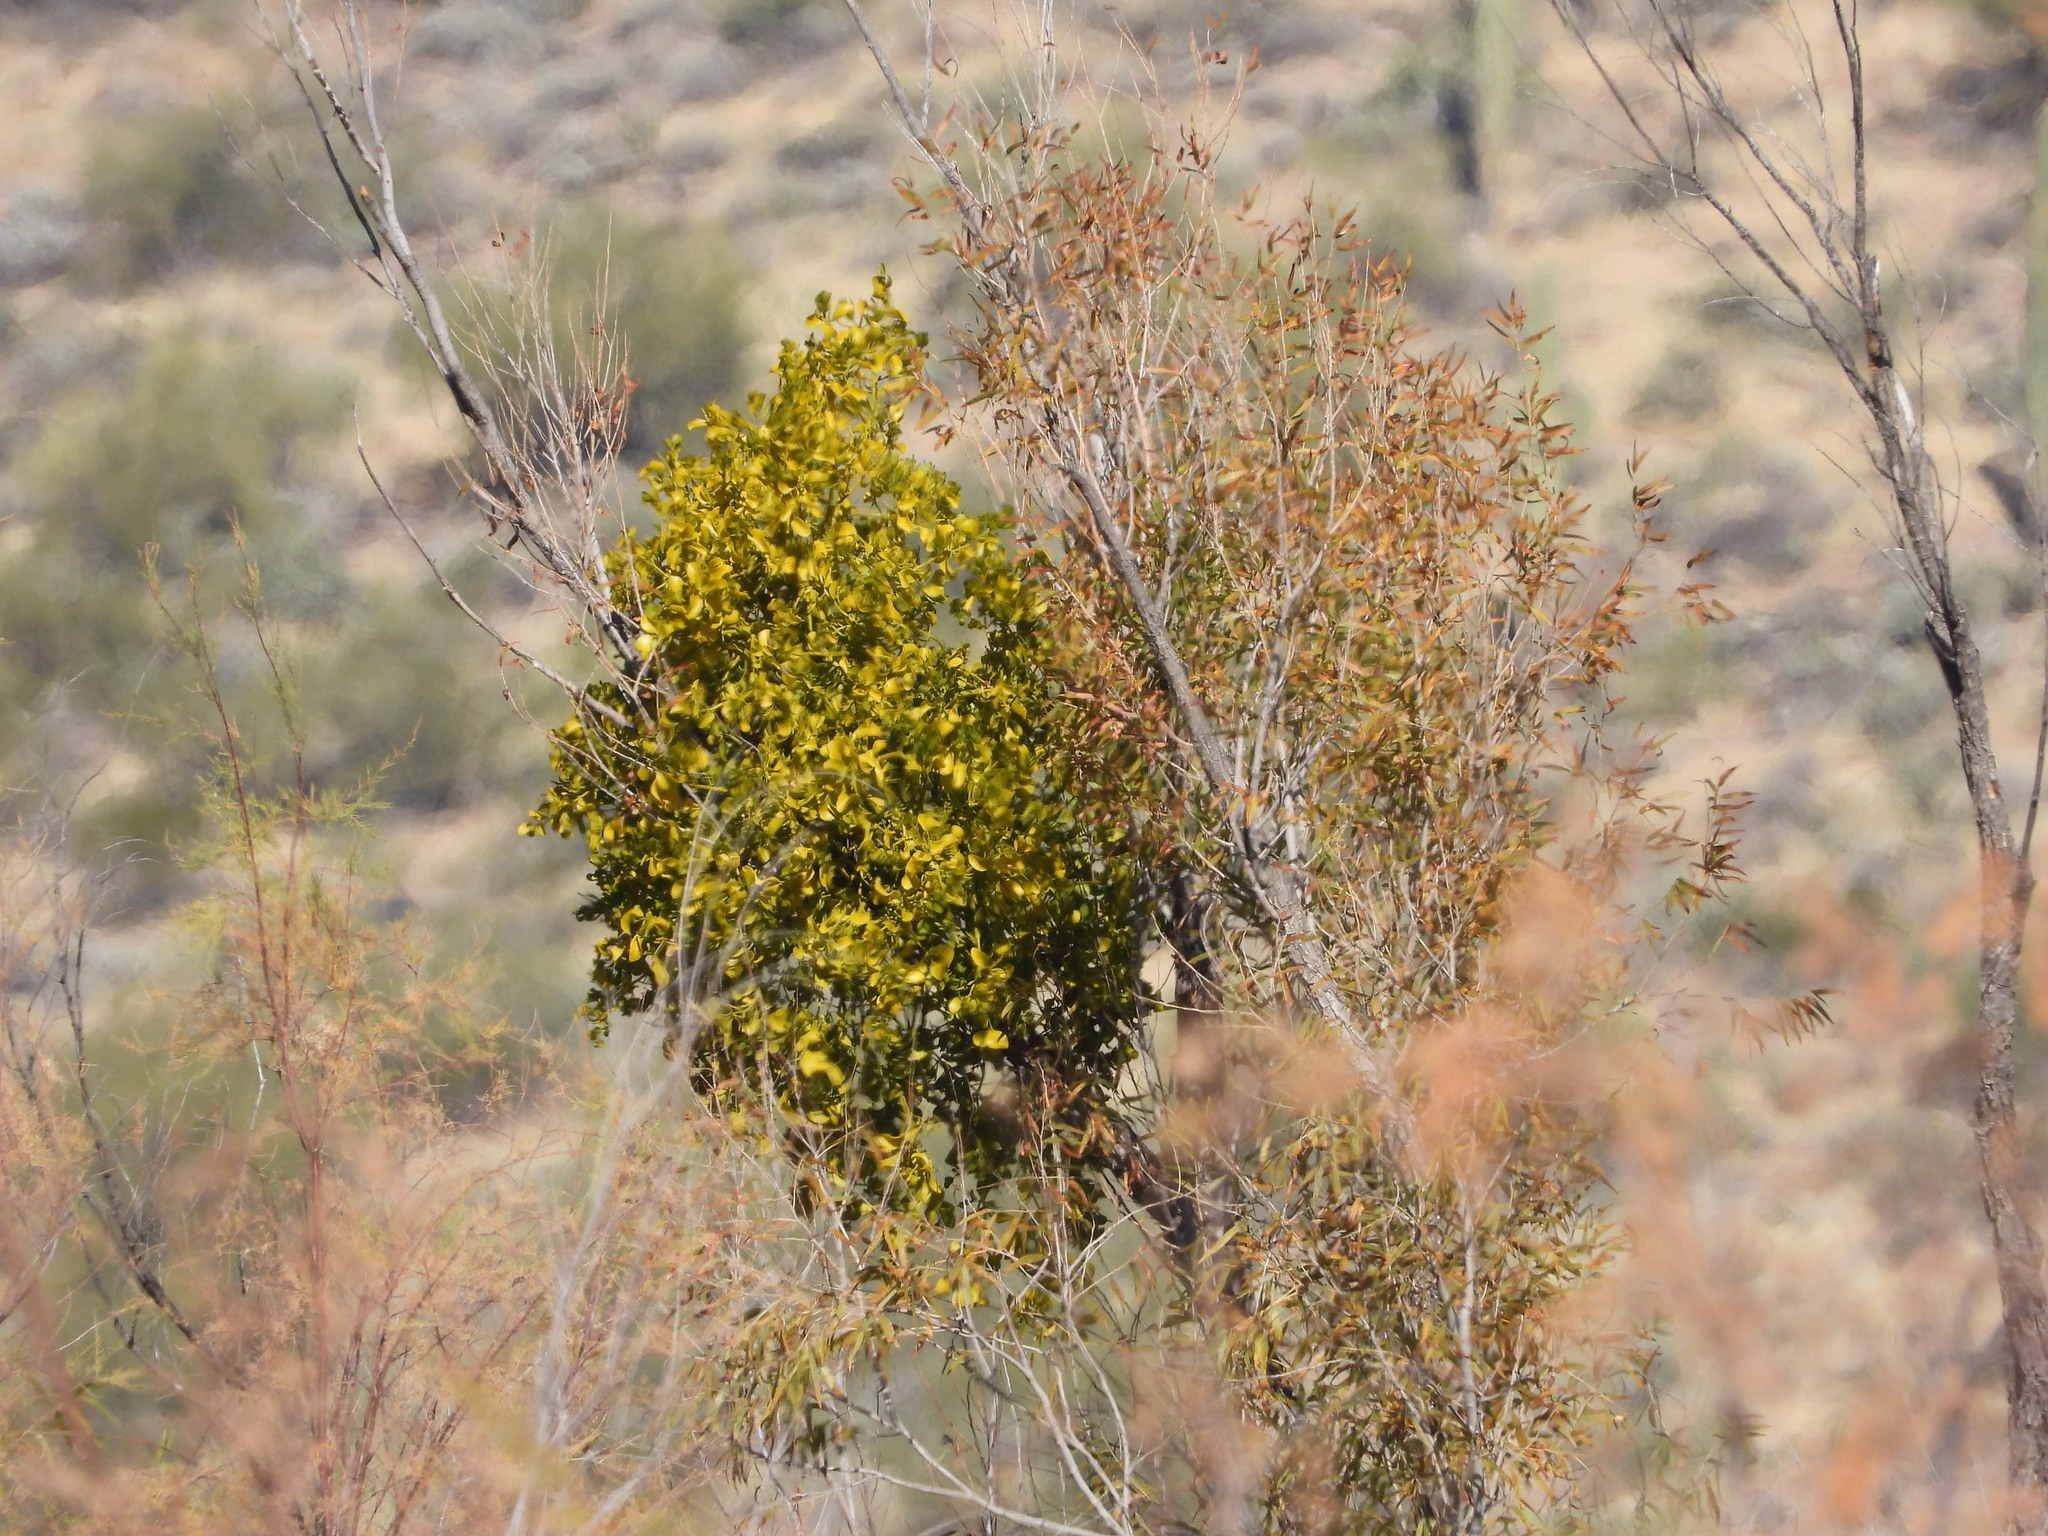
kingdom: Plantae
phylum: Tracheophyta
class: Magnoliopsida
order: Santalales
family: Viscaceae
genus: Phoradendron
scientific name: Phoradendron
